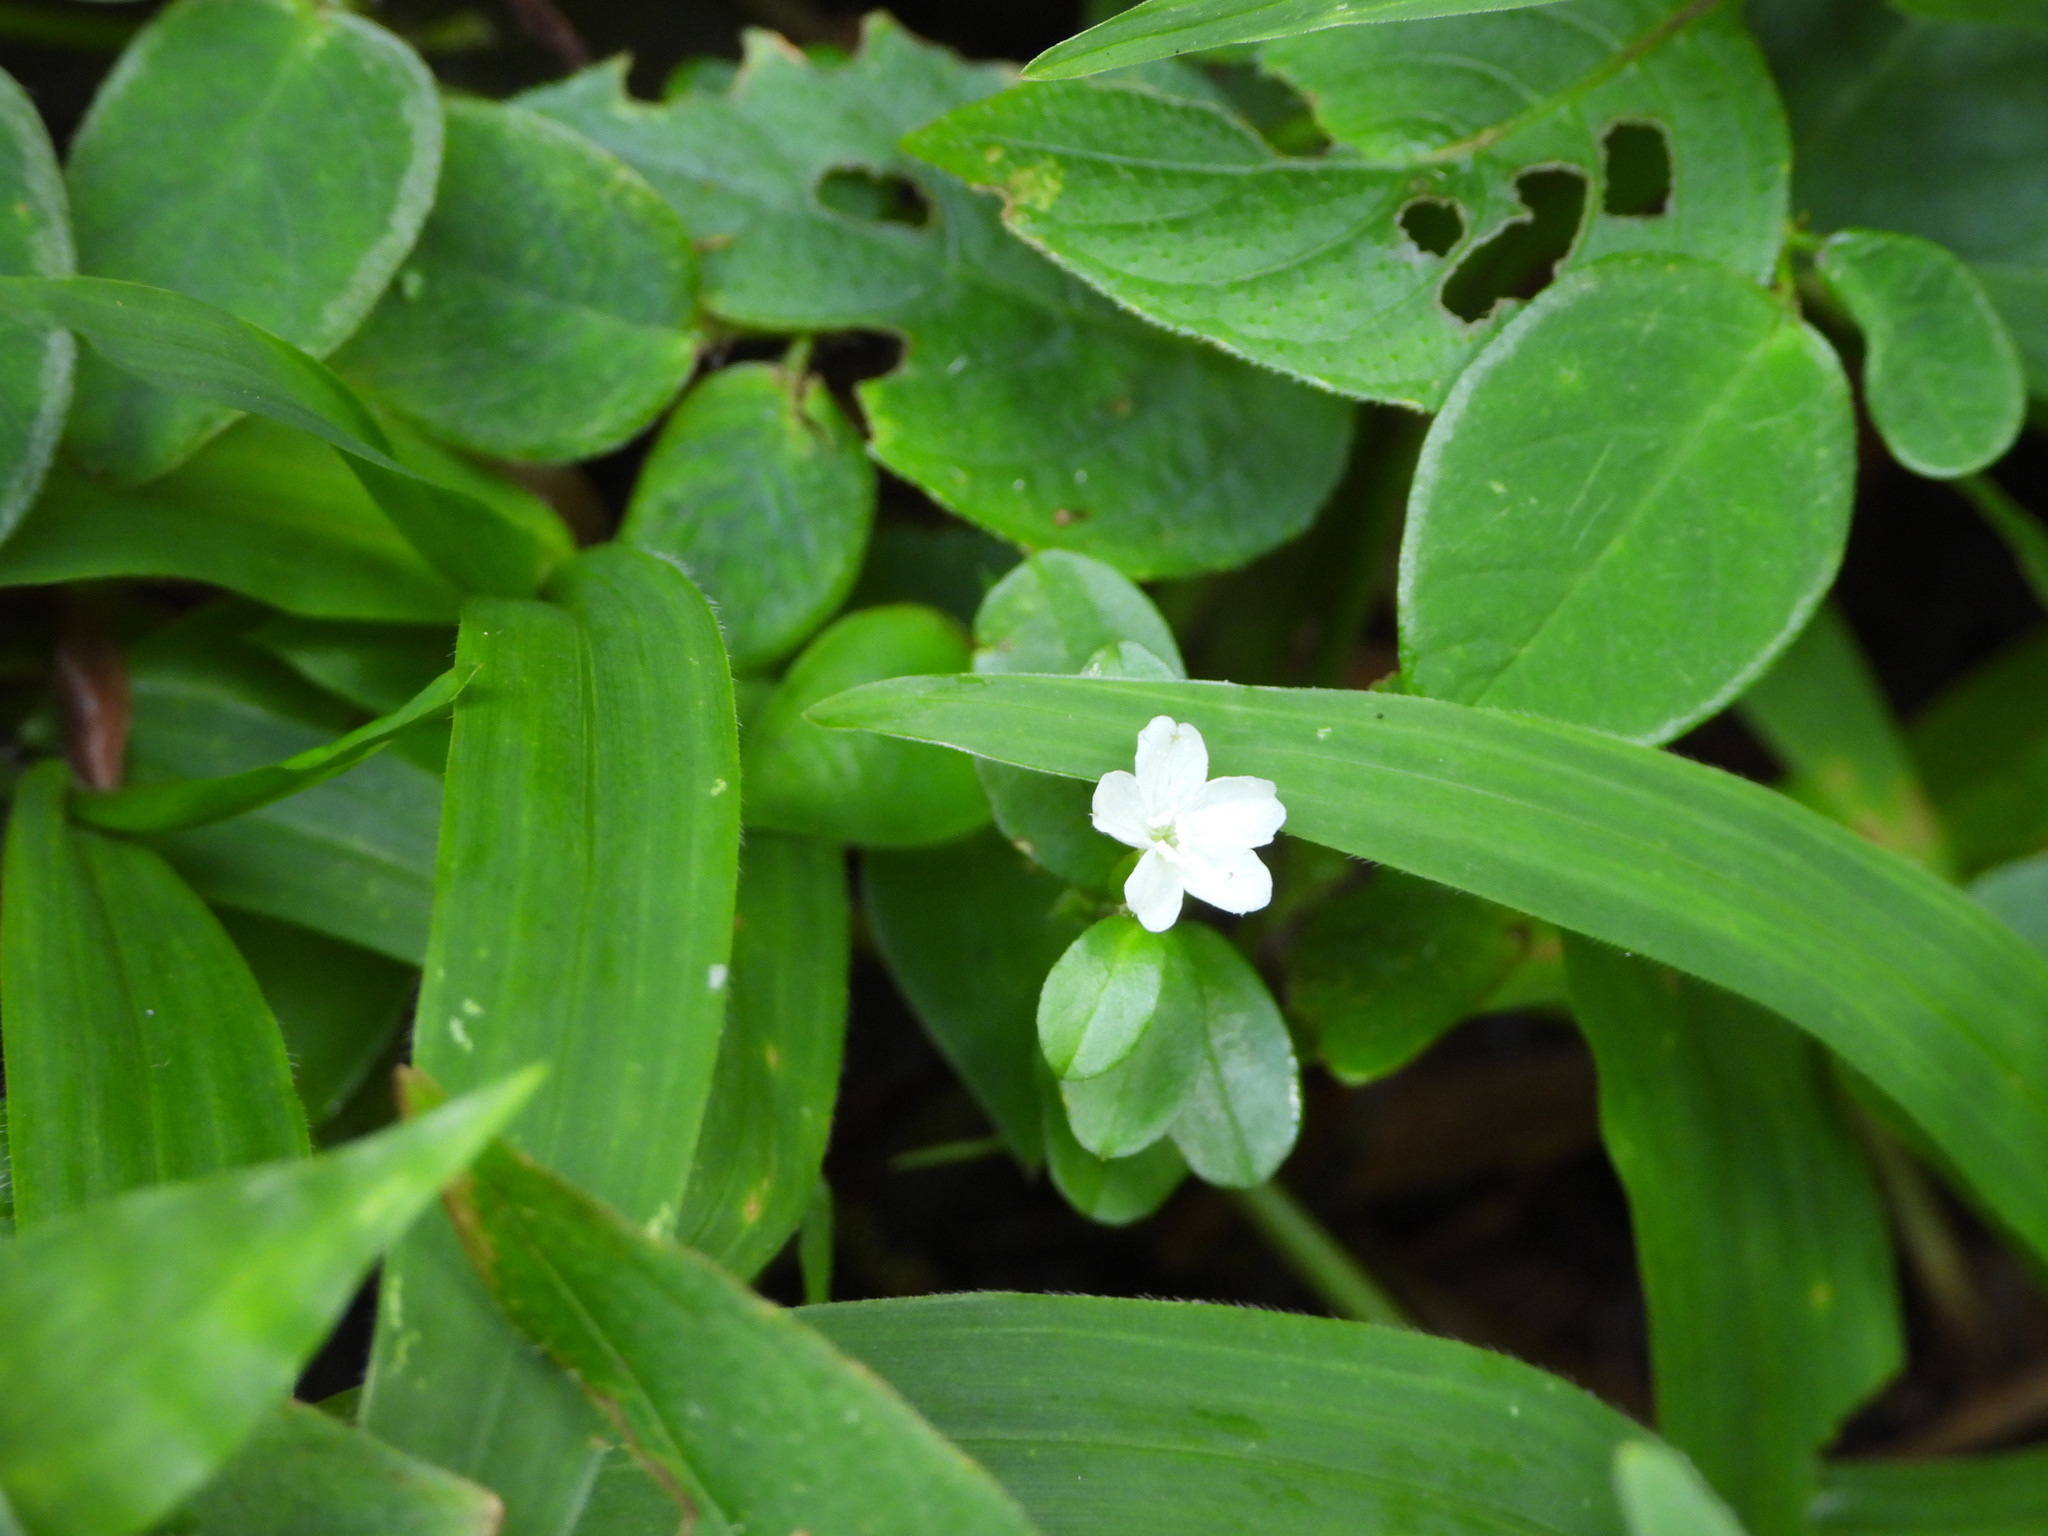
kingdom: Plantae
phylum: Tracheophyta
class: Magnoliopsida
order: Gentianales
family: Rubiaceae
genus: Geophila
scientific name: Geophila repens
